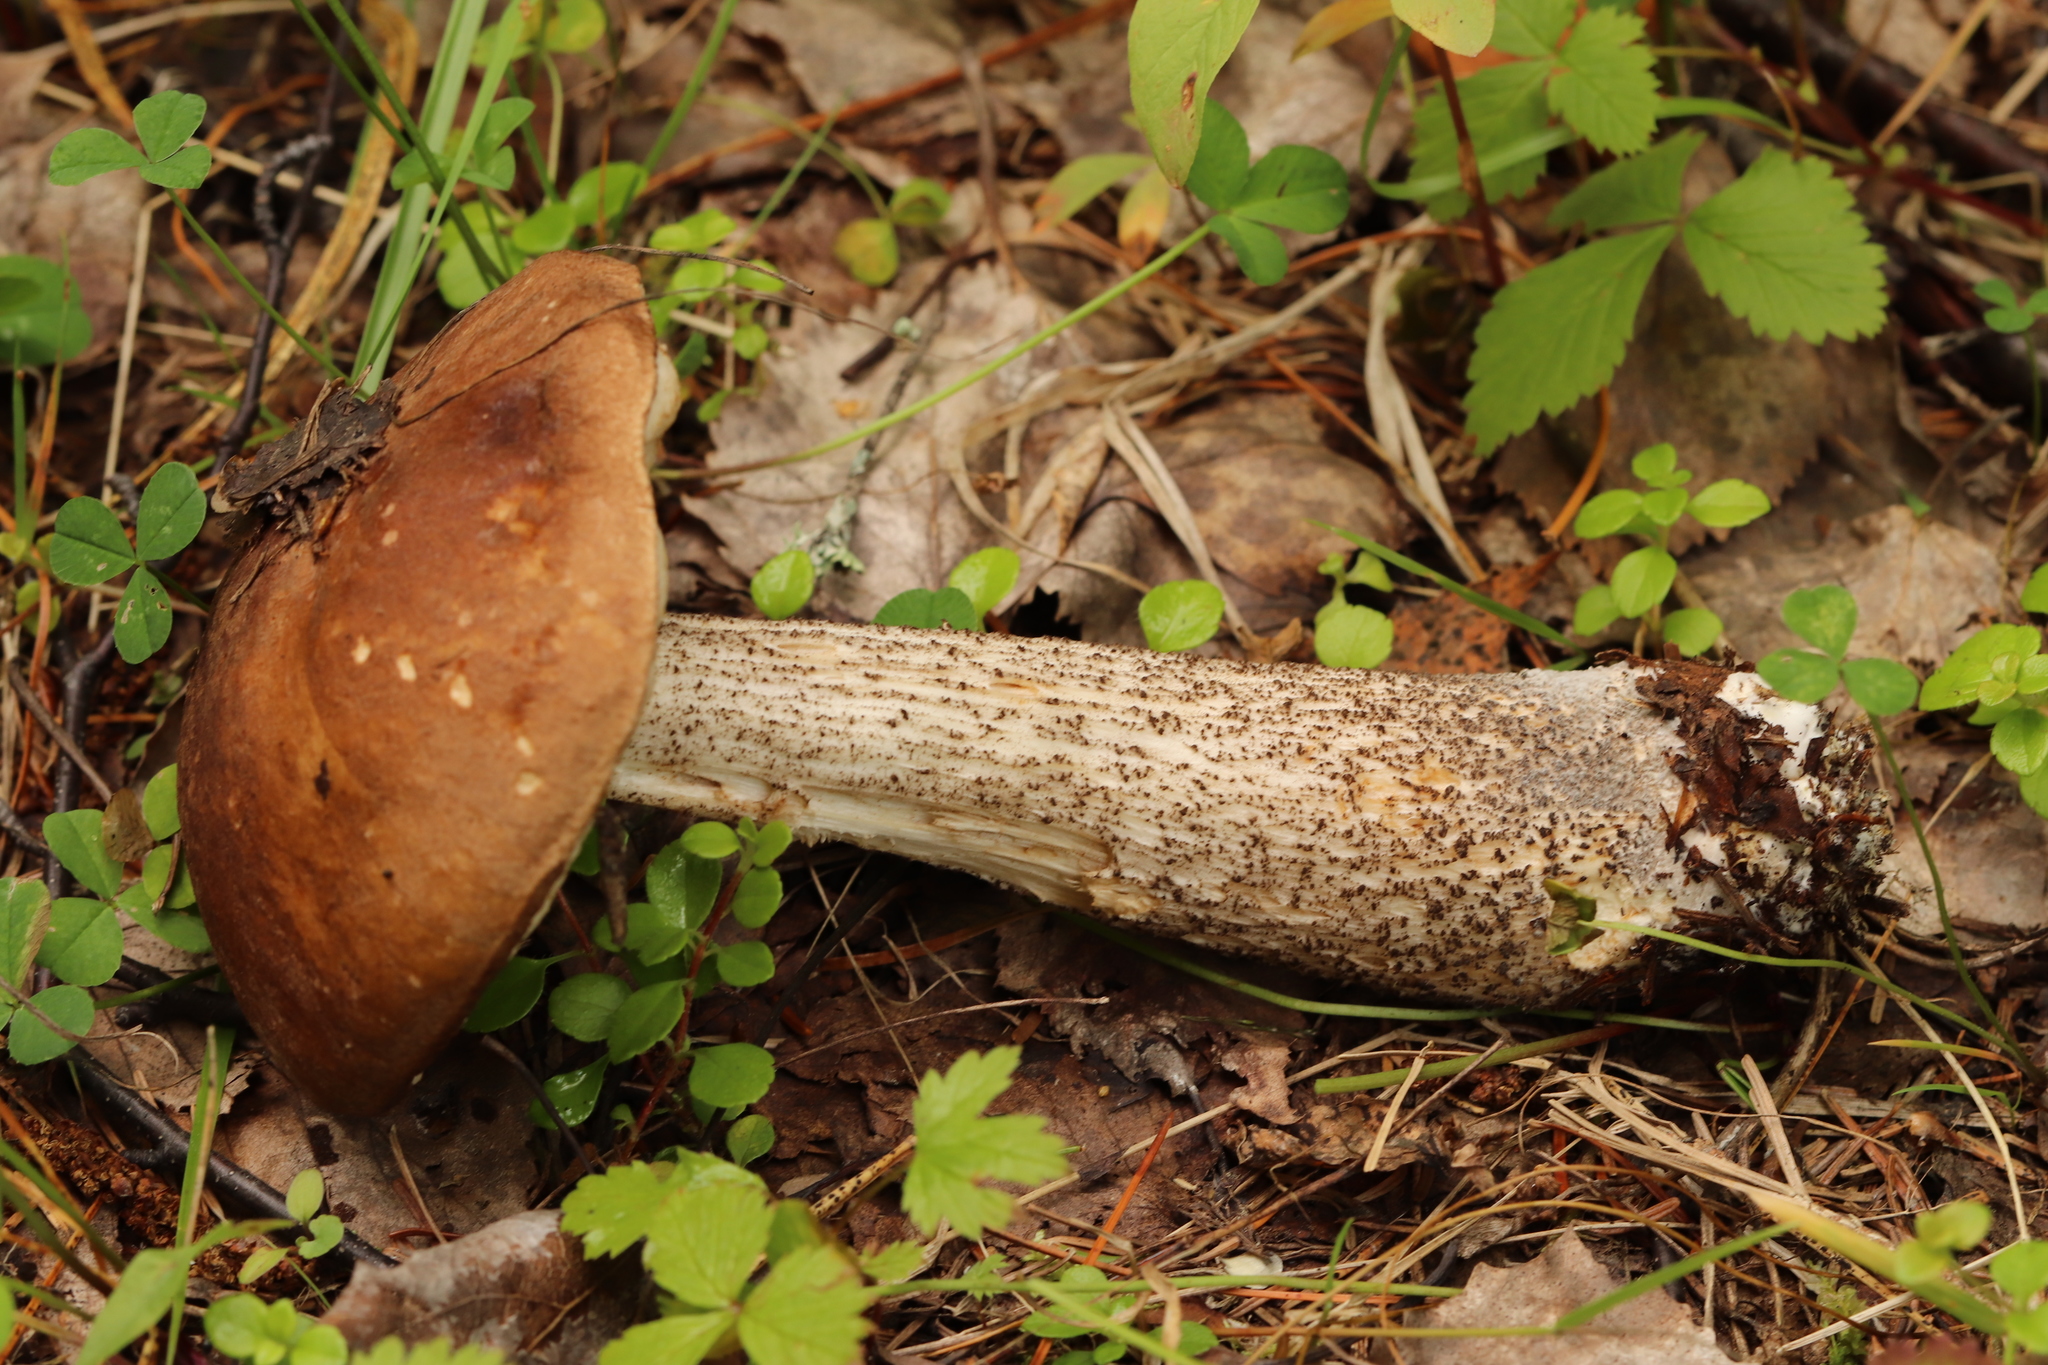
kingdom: Fungi
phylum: Basidiomycota
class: Agaricomycetes
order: Boletales
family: Boletaceae
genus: Leccinum
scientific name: Leccinum scabrum
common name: Blushing bolete
